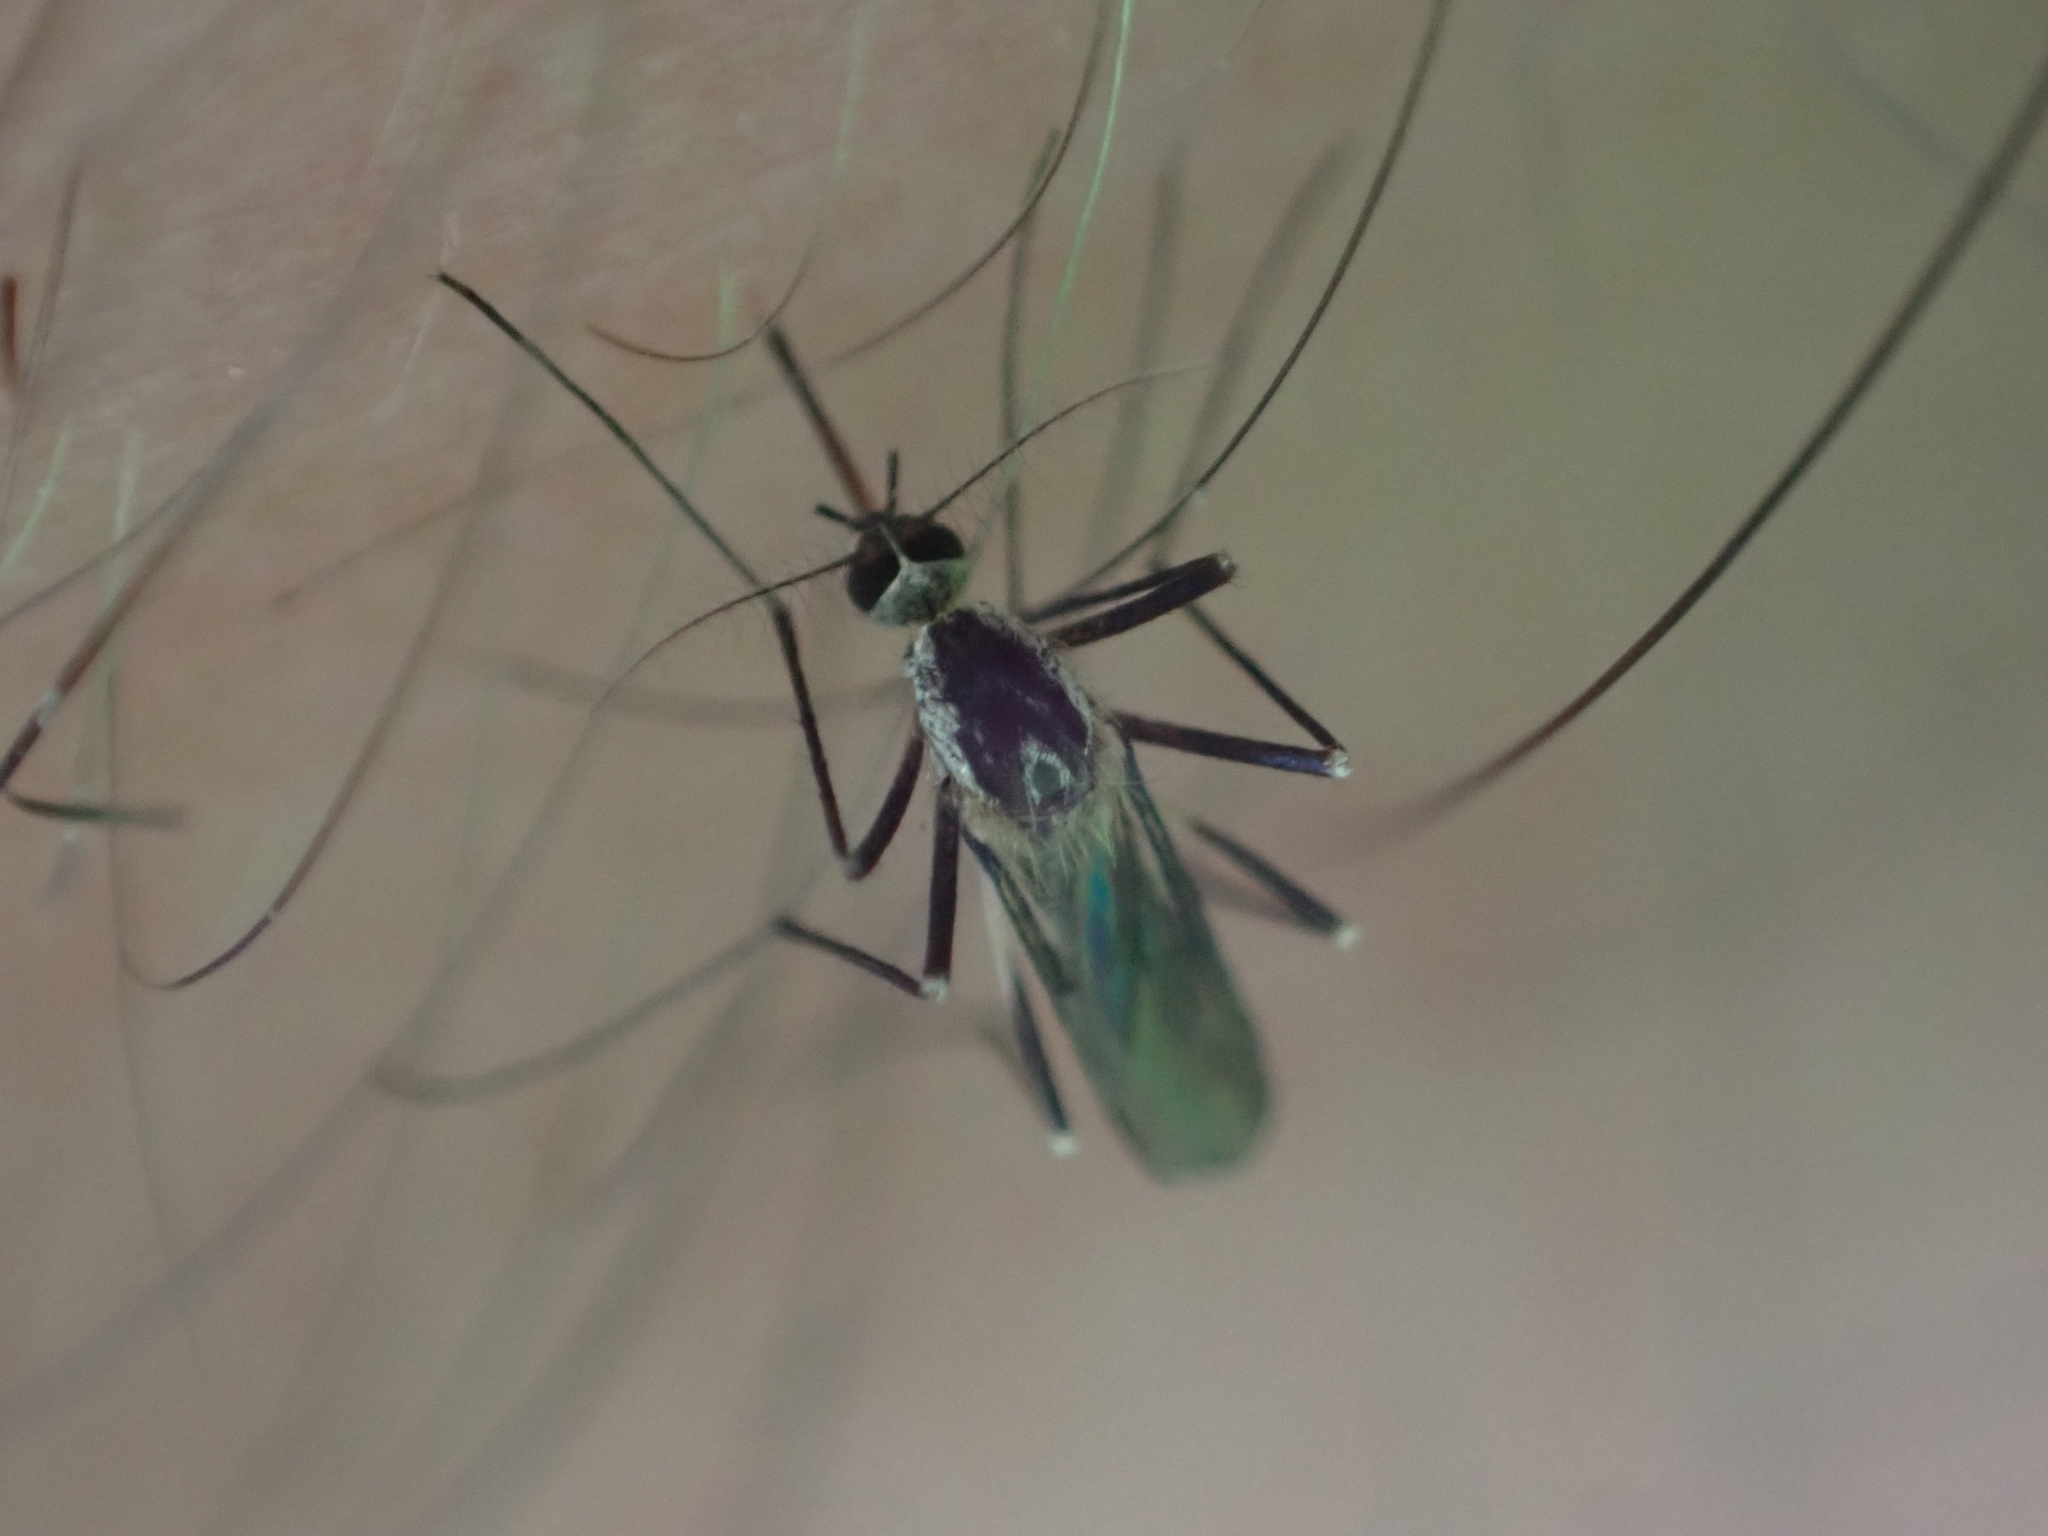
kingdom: Animalia
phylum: Arthropoda
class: Insecta
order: Diptera
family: Culicidae
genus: Aedes
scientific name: Aedes triseriatus
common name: Eastern treehole mosquito
